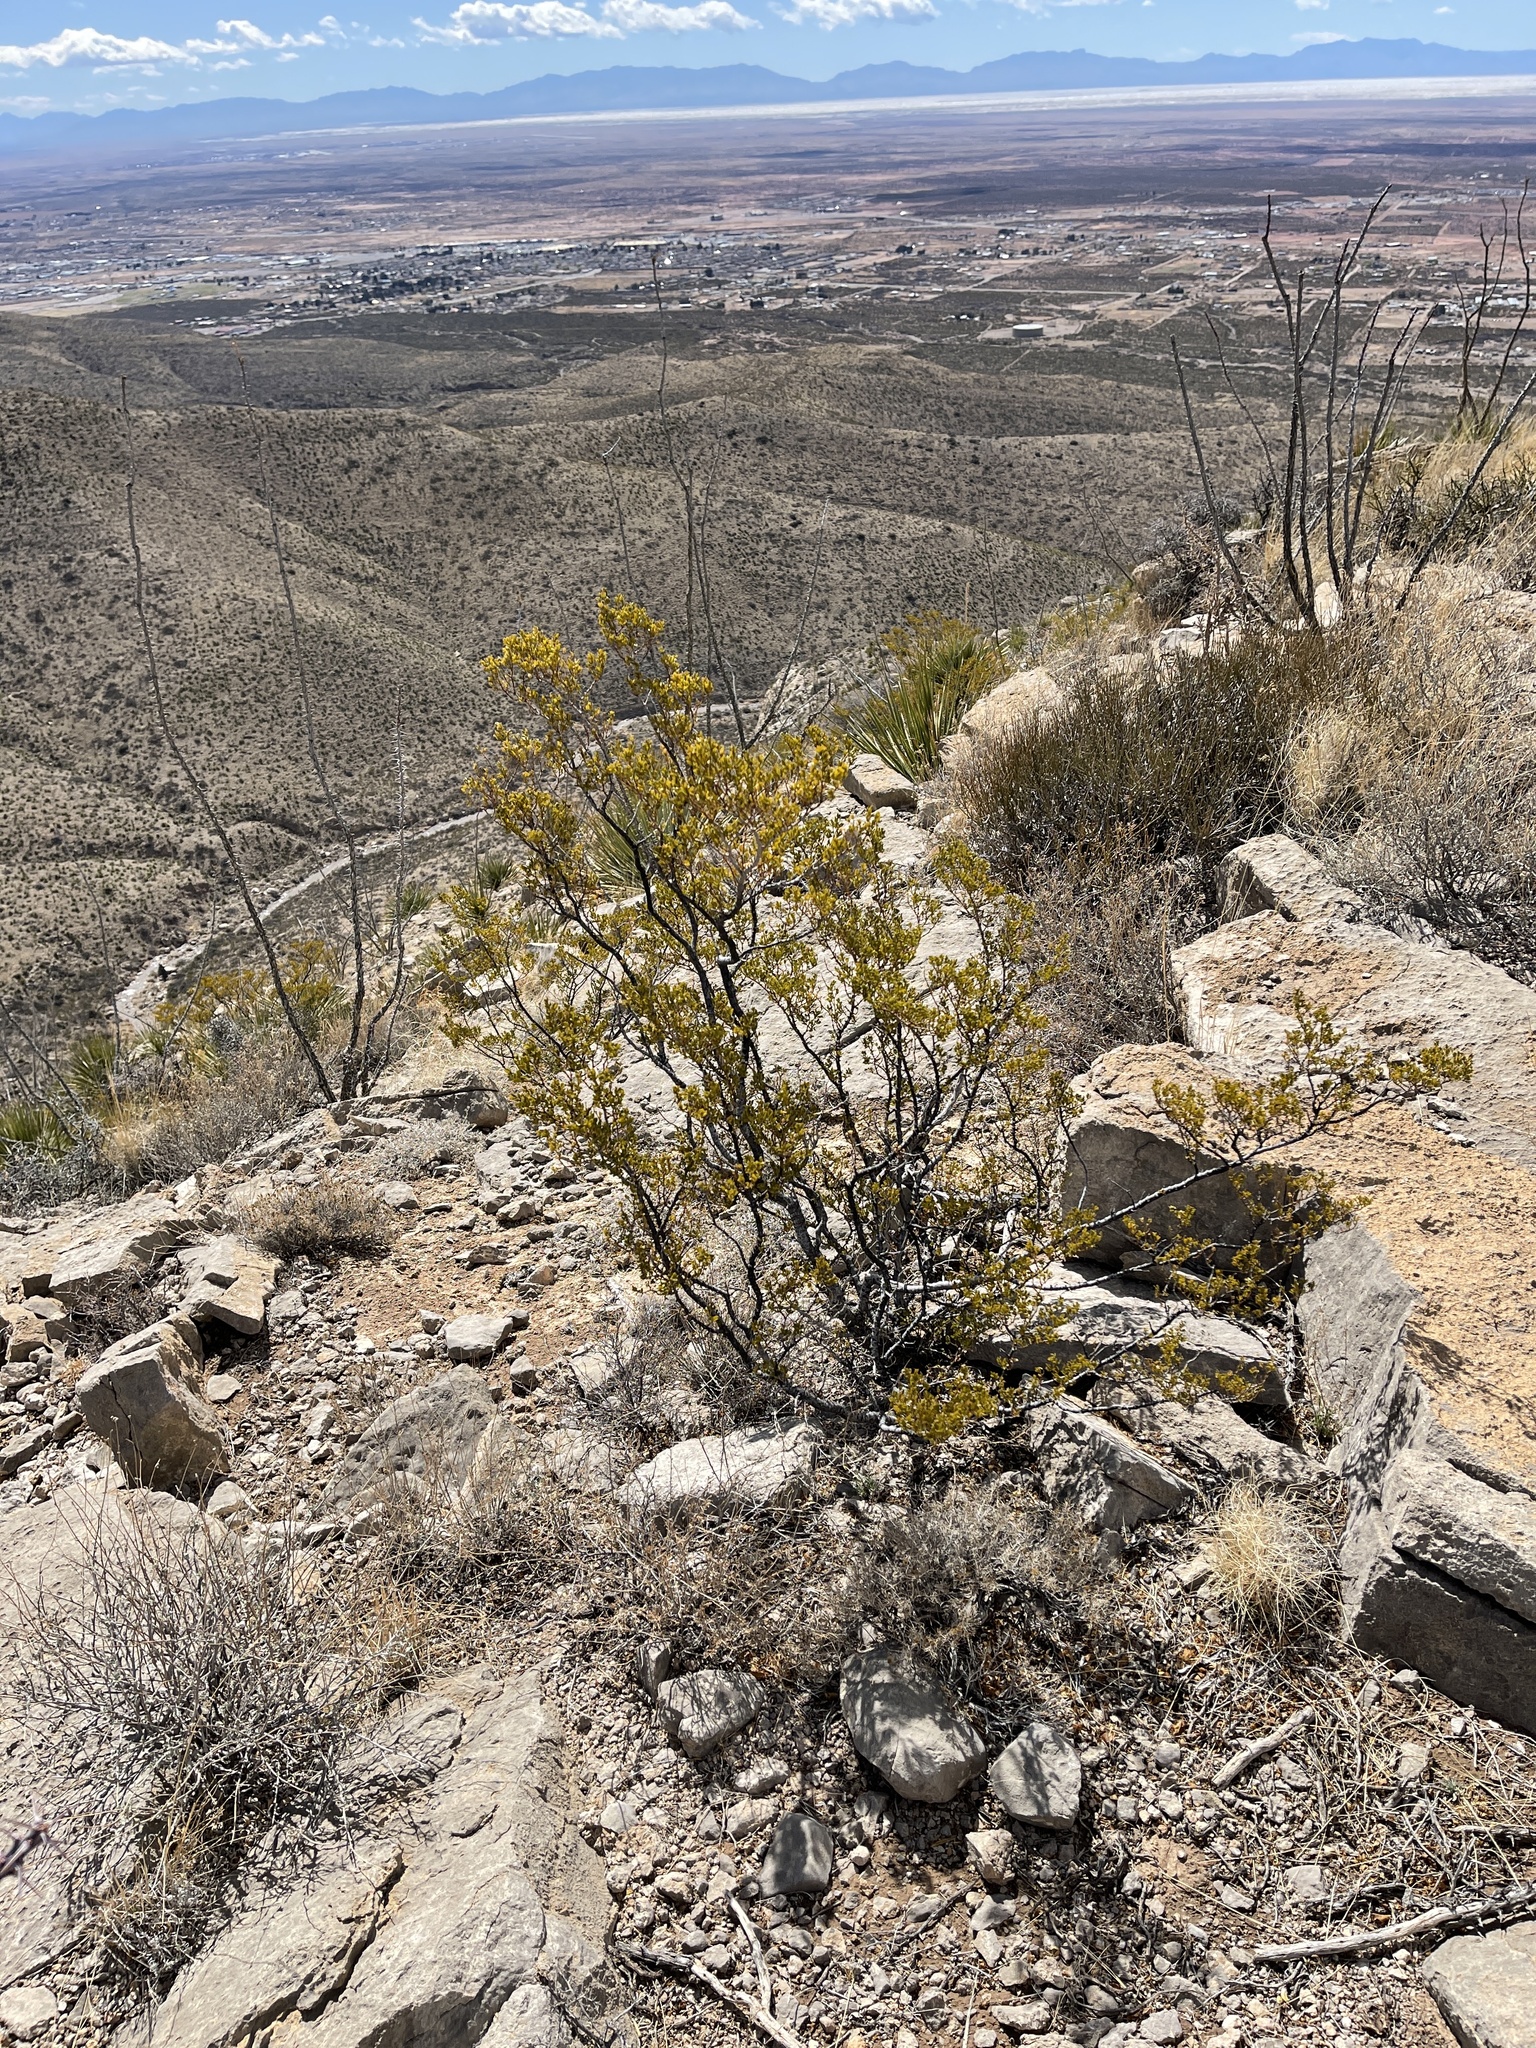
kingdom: Plantae
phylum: Tracheophyta
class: Magnoliopsida
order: Zygophyllales
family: Zygophyllaceae
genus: Larrea
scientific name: Larrea tridentata
